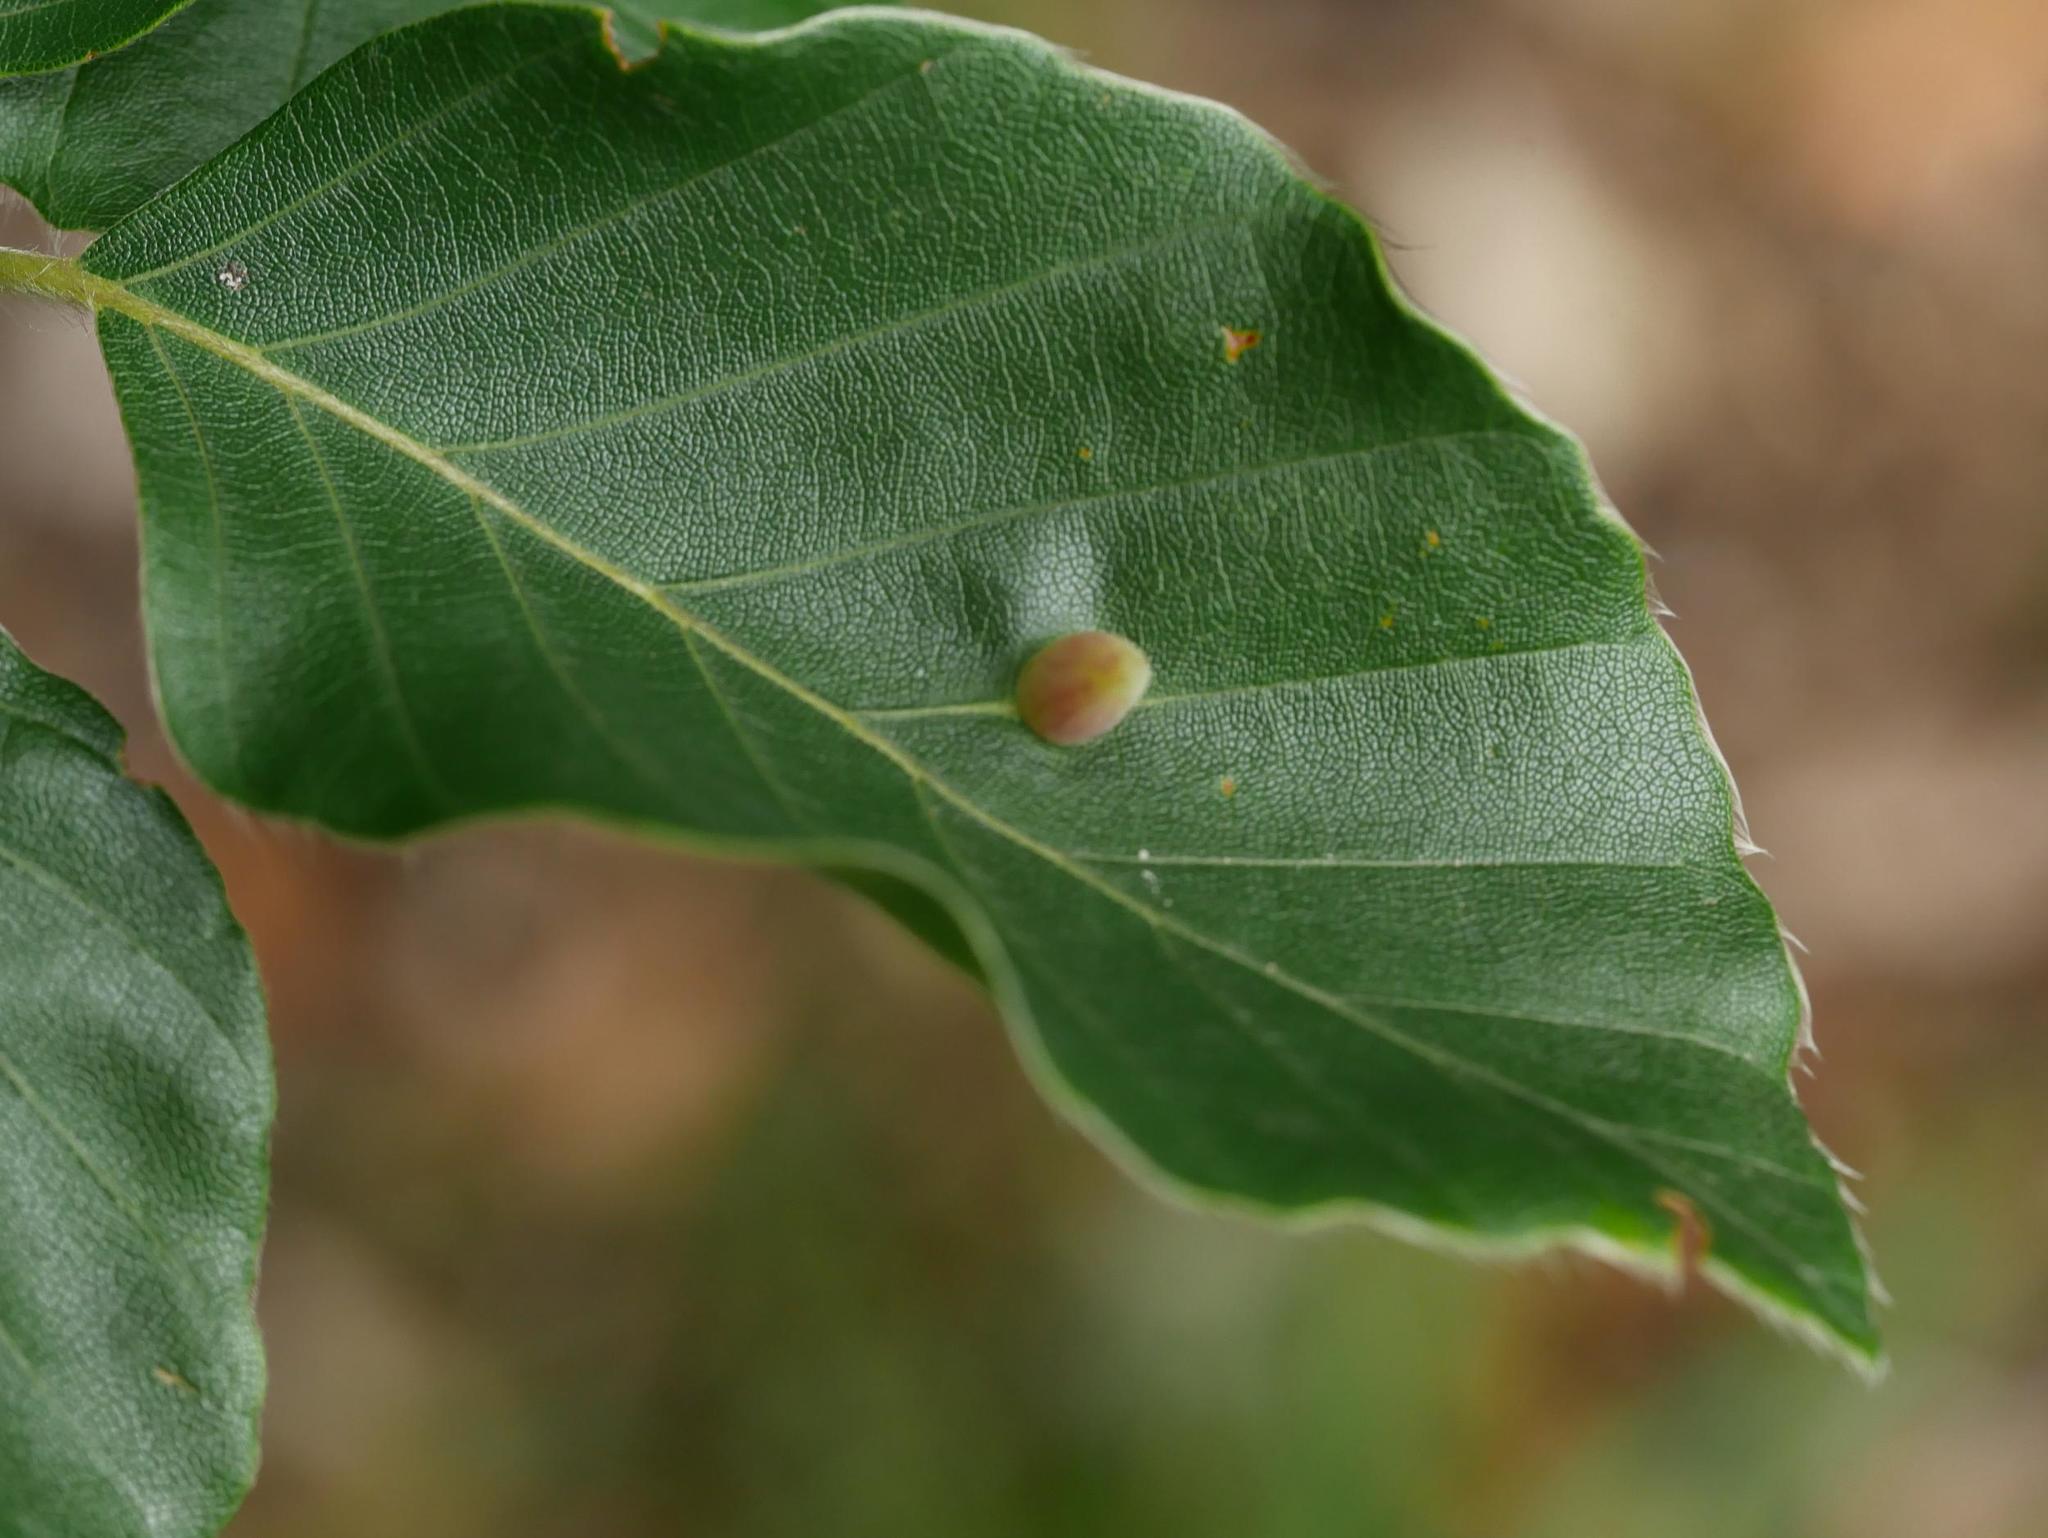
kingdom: Animalia
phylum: Arthropoda
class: Insecta
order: Diptera
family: Cecidomyiidae
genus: Mikiola
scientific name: Mikiola fagi
